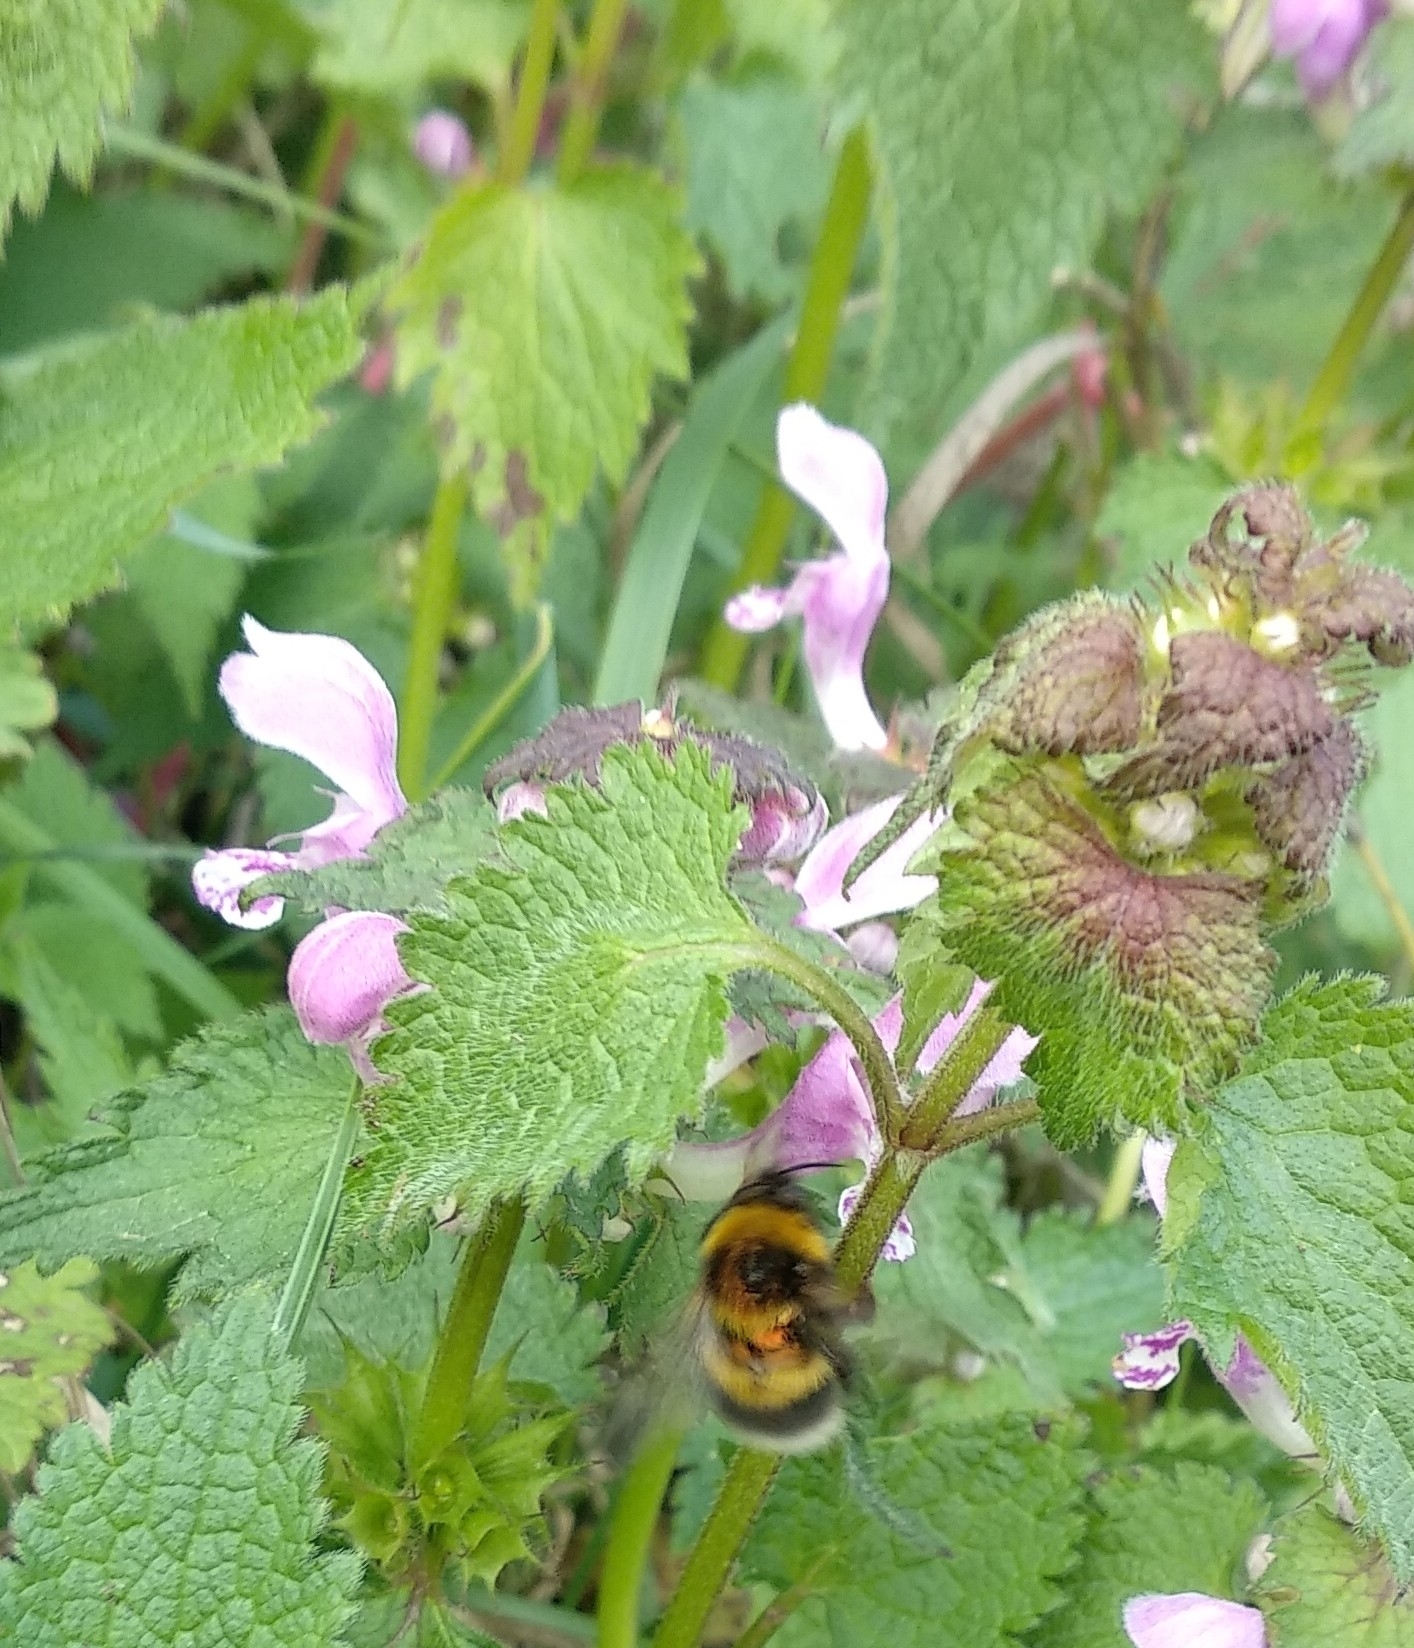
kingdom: Animalia
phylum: Arthropoda
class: Insecta
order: Hymenoptera
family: Apidae
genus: Bombus
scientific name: Bombus hortorum
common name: Garden bumblebee
